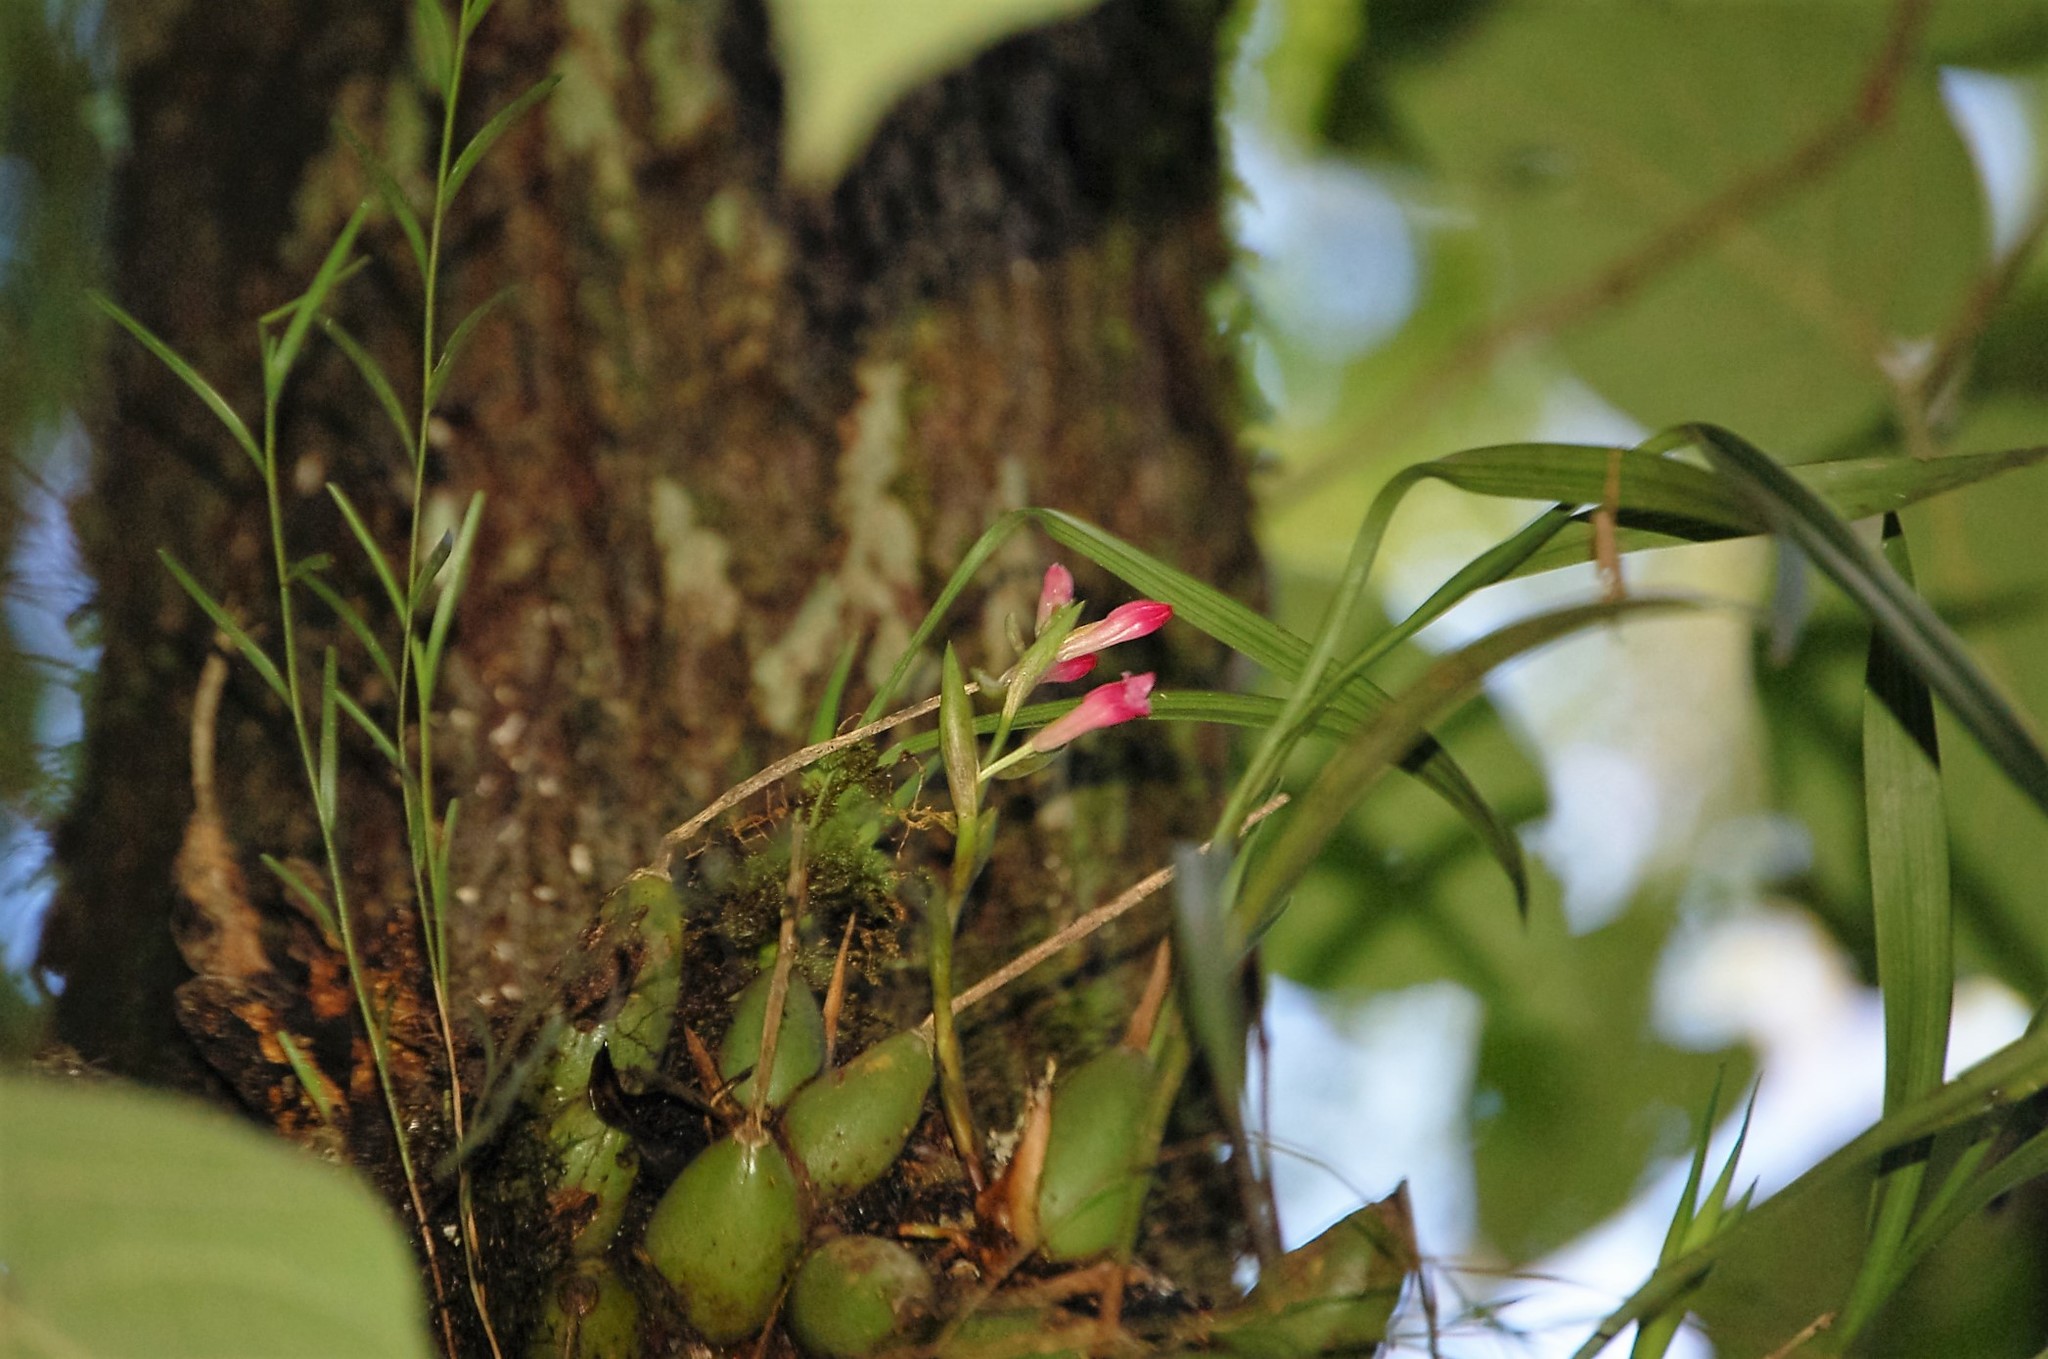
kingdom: Plantae
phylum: Tracheophyta
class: Liliopsida
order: Asparagales
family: Orchidaceae
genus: Coelia
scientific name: Coelia guatemalensis
